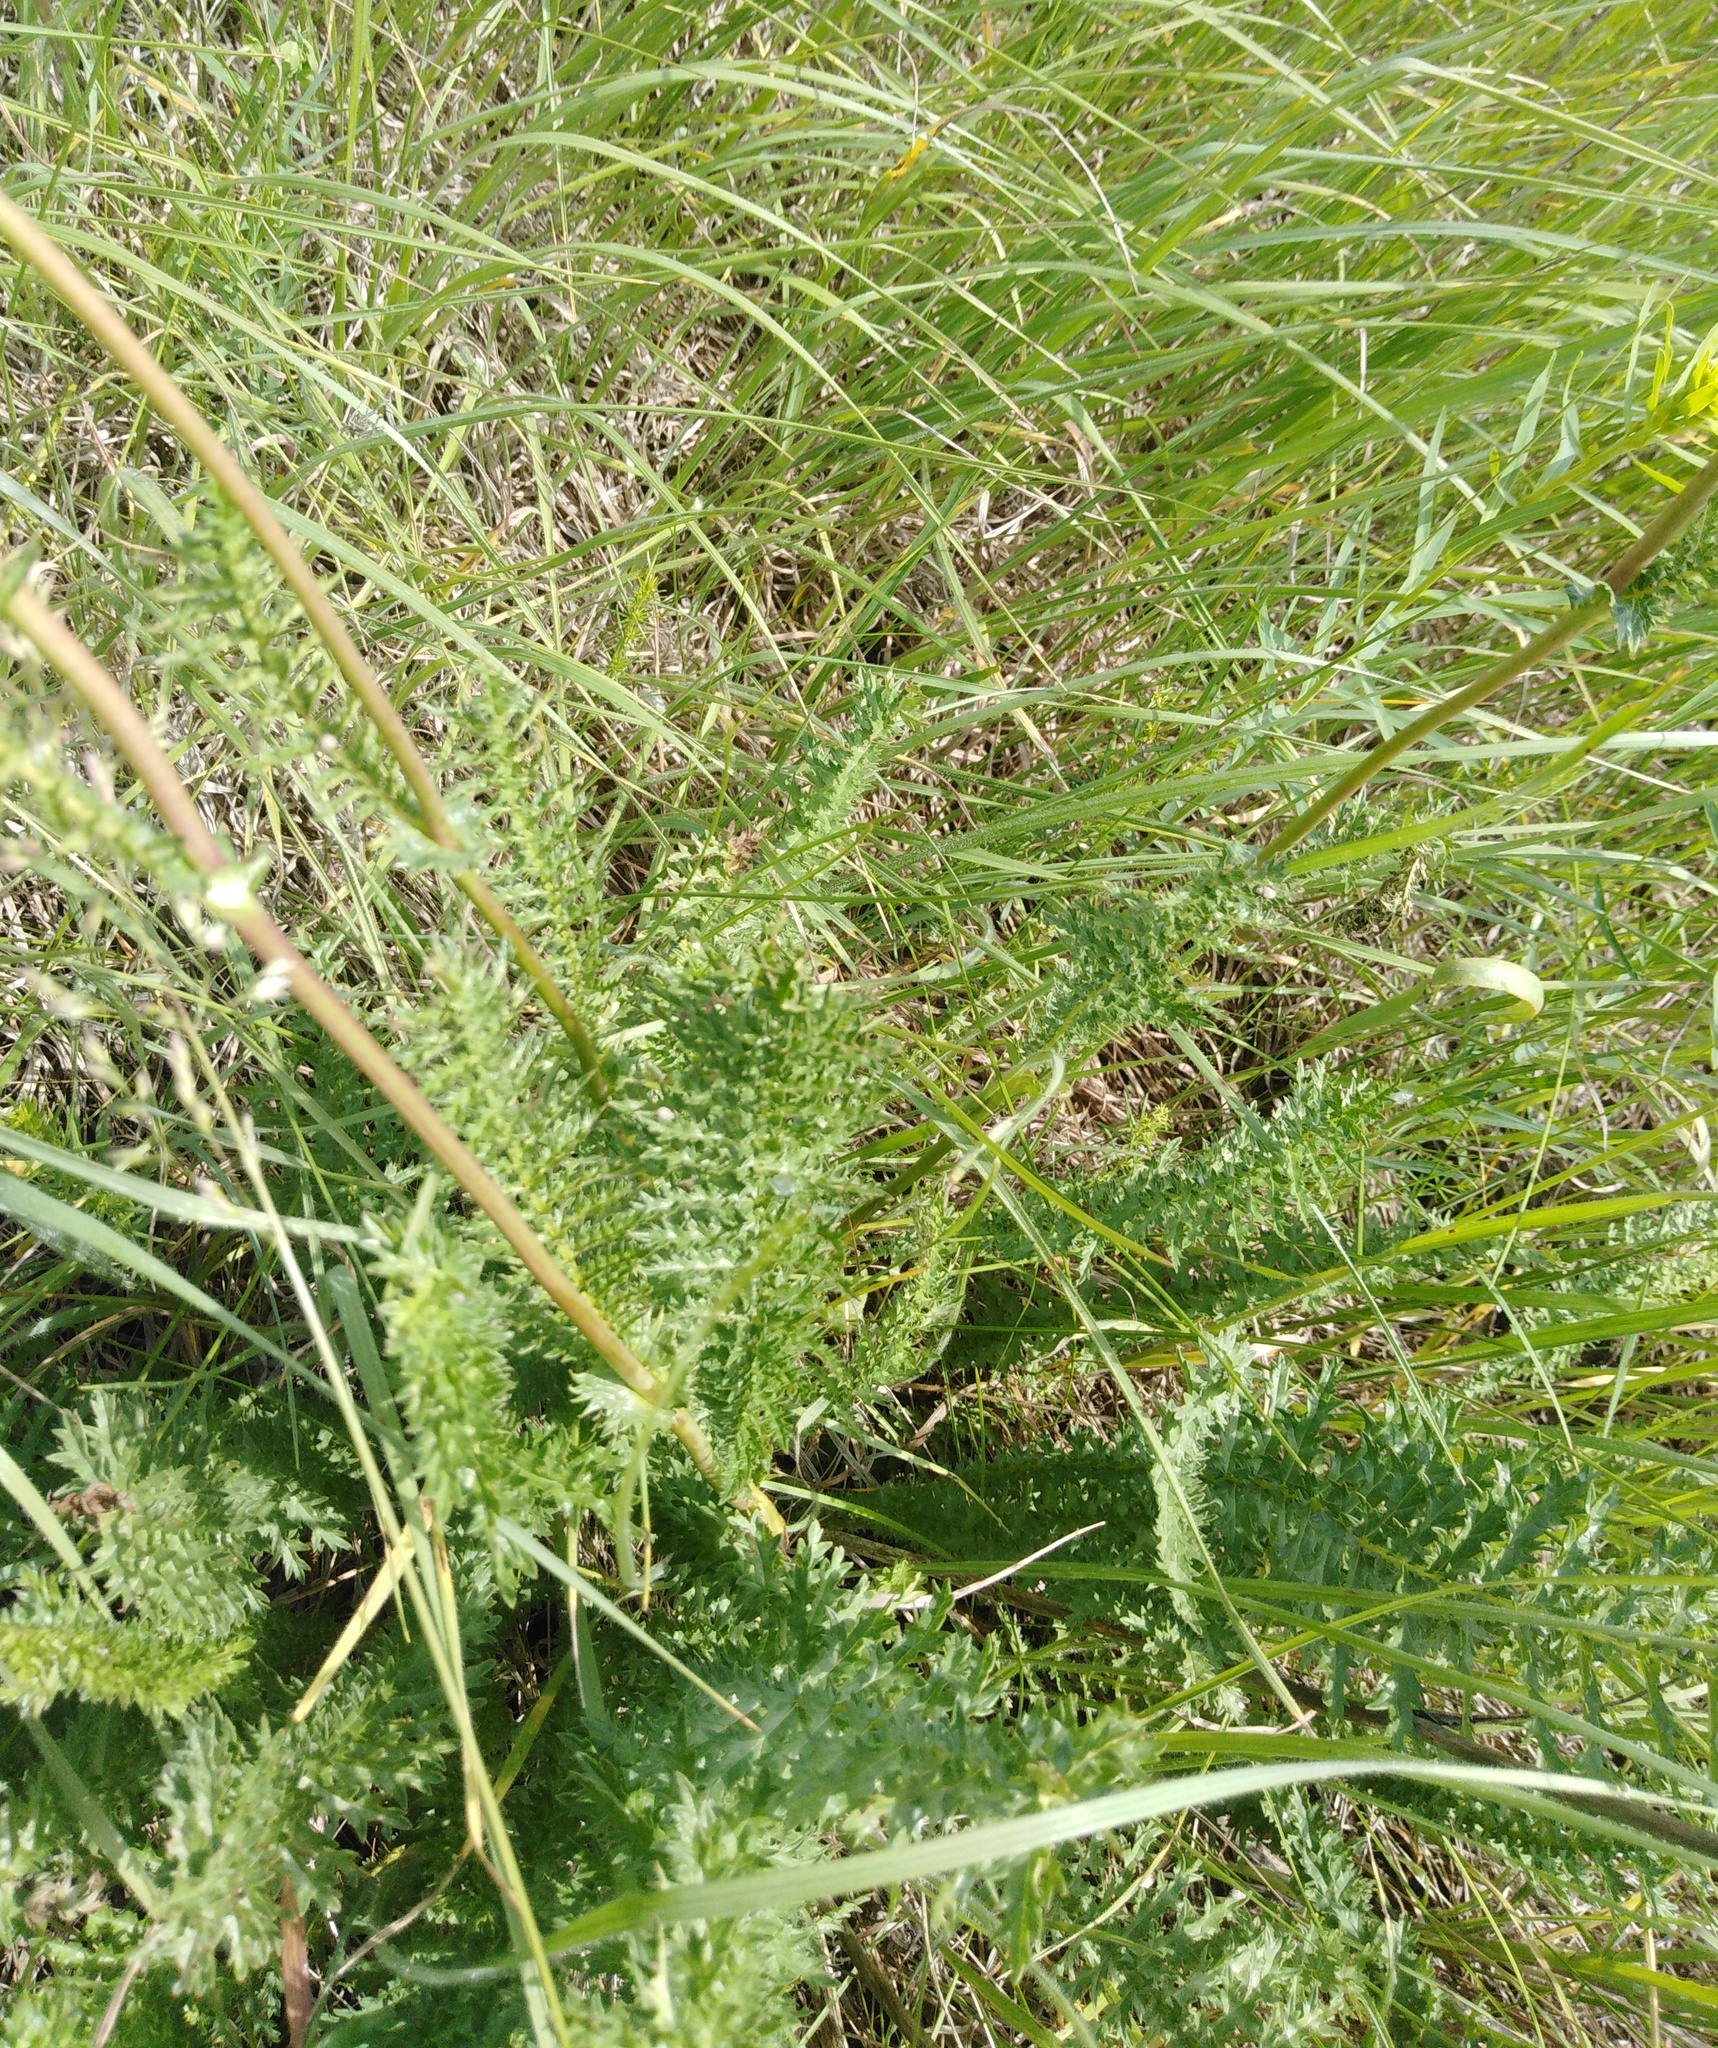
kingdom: Plantae
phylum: Tracheophyta
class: Magnoliopsida
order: Rosales
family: Rosaceae
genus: Filipendula
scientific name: Filipendula vulgaris
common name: Dropwort
